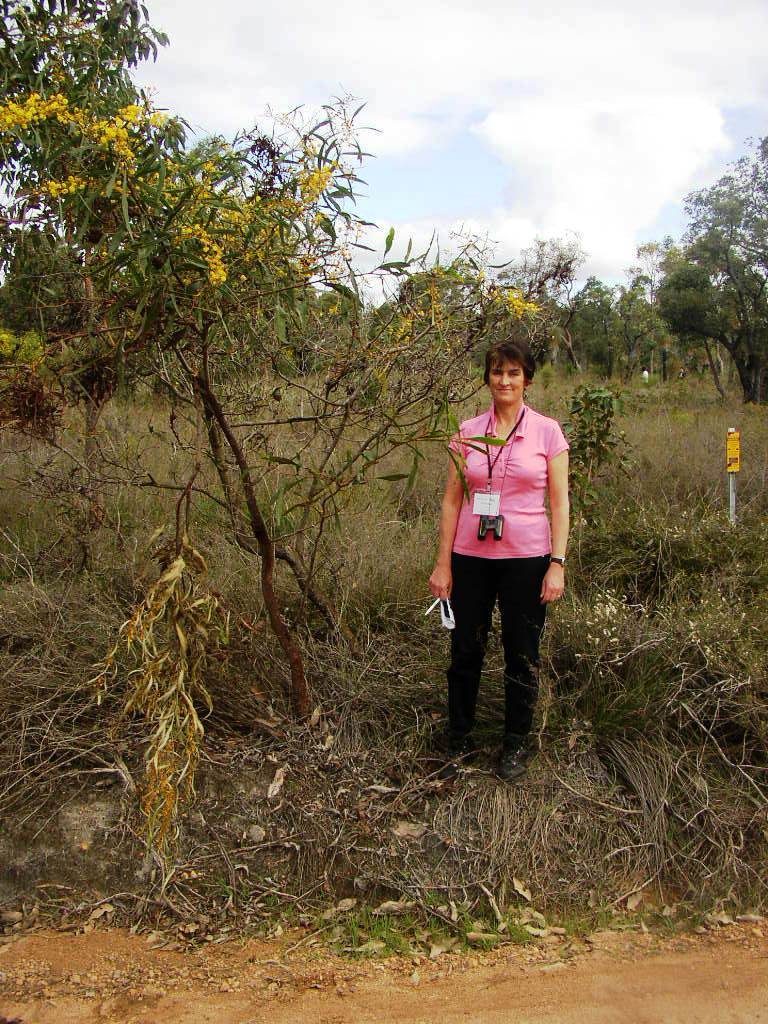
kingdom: Plantae
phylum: Tracheophyta
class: Magnoliopsida
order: Fabales
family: Fabaceae
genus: Acacia
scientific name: Acacia saligna
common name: Orange wattle
